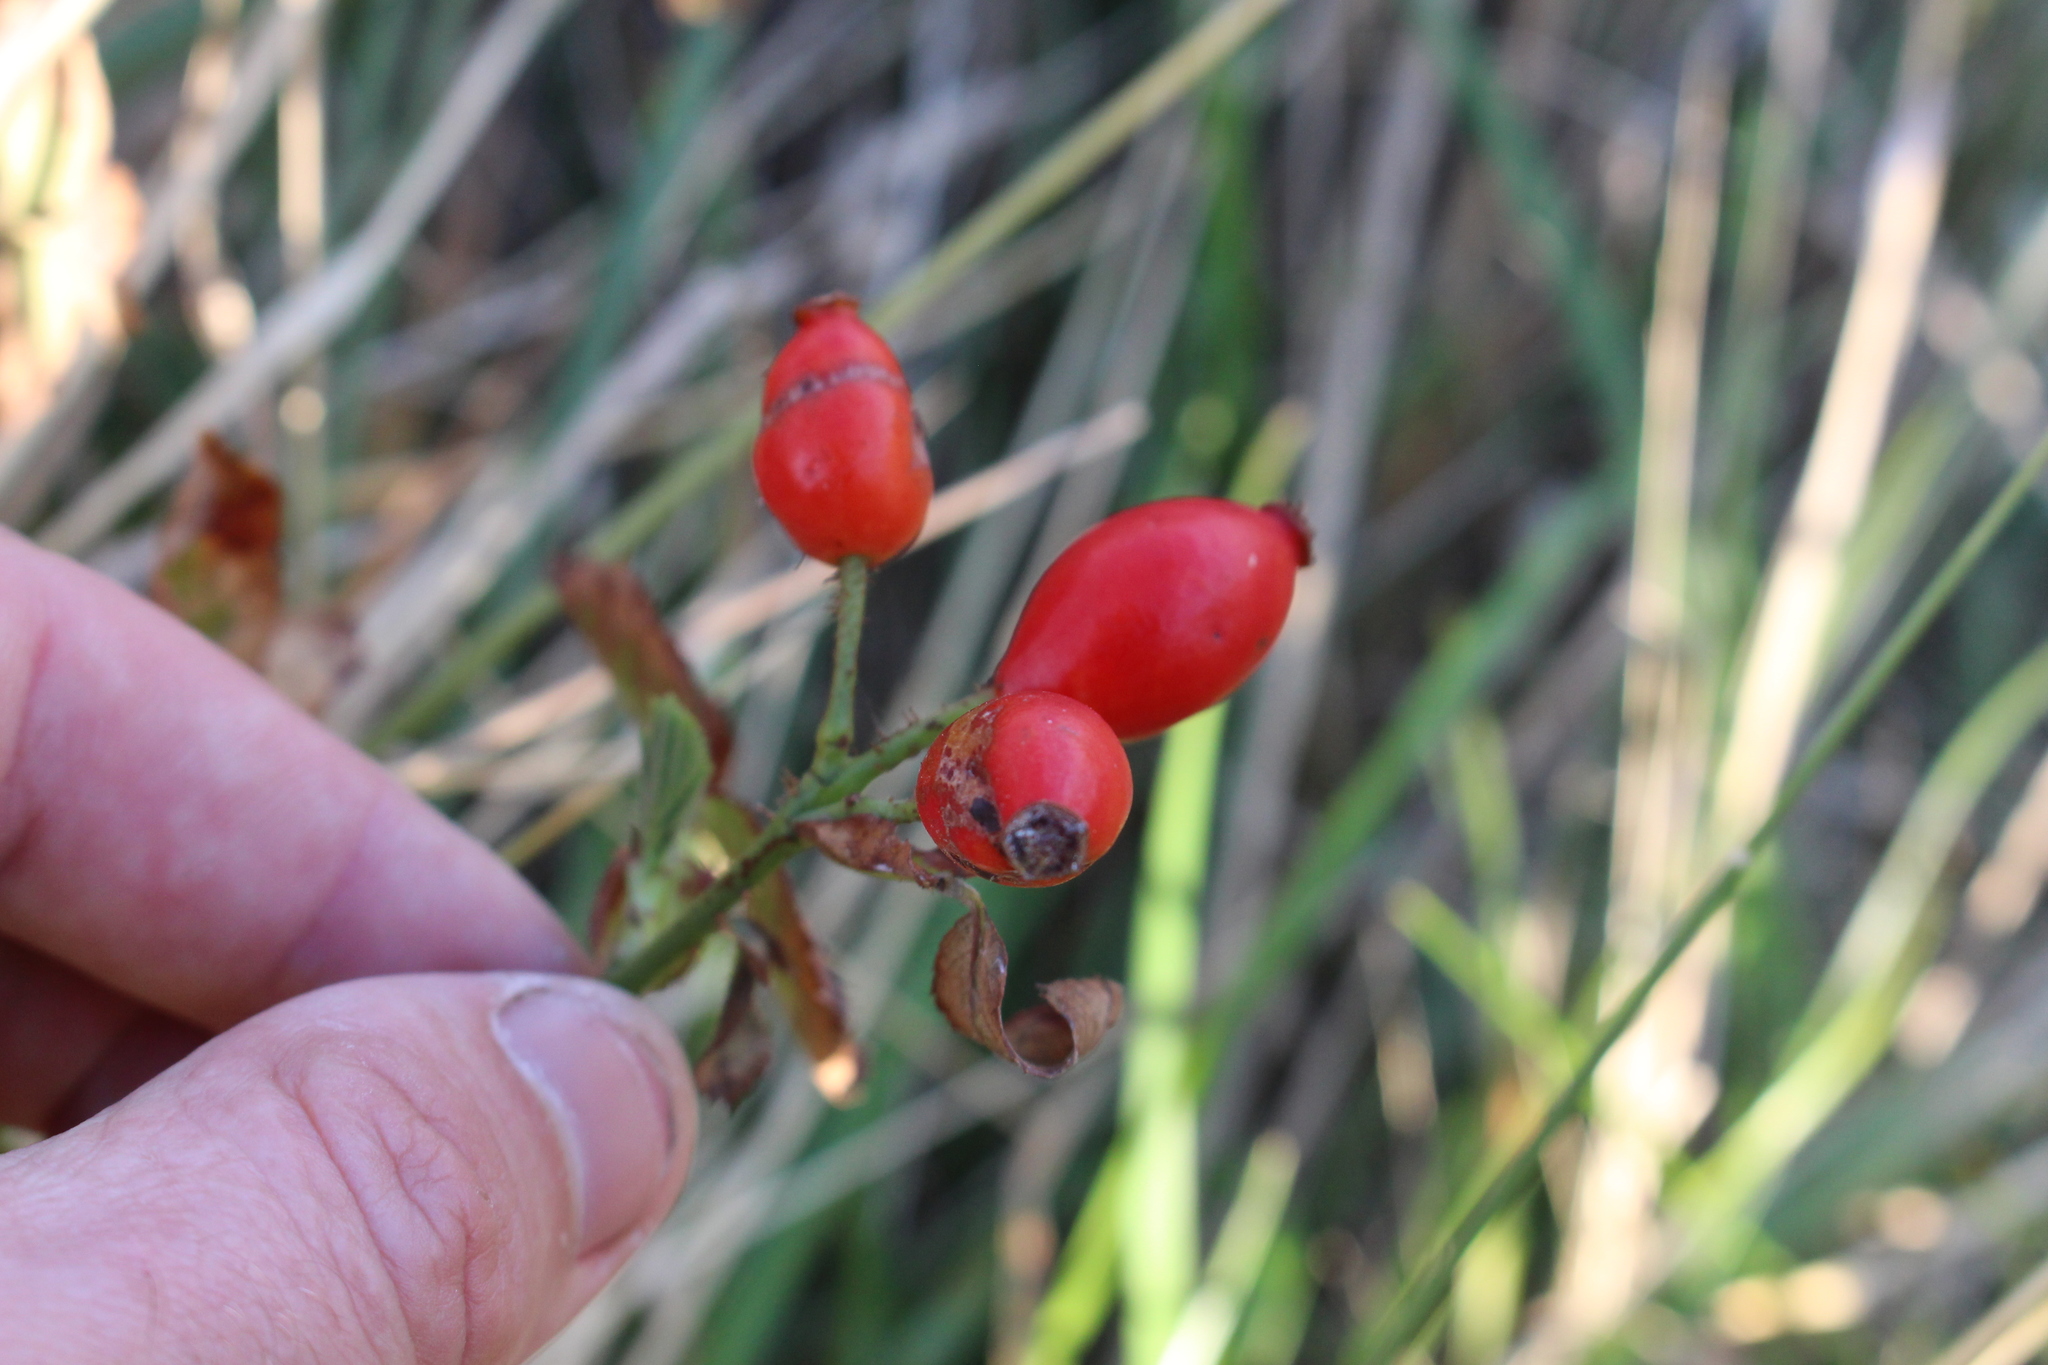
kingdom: Plantae
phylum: Tracheophyta
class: Magnoliopsida
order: Rosales
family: Rosaceae
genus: Rosa
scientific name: Rosa rubiginosa
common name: Sweet-briar
